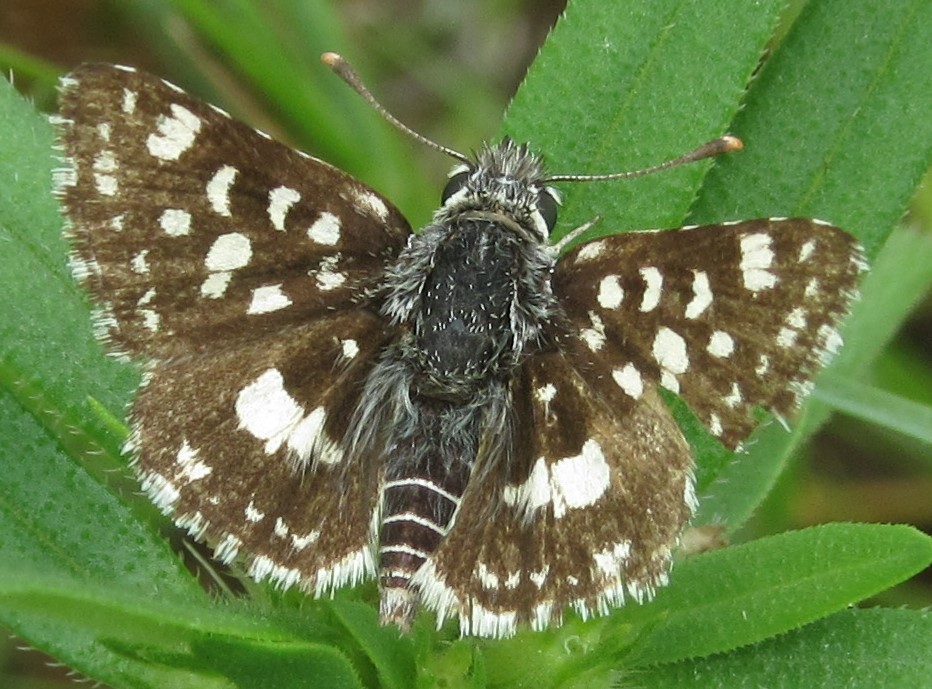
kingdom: Animalia
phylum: Arthropoda
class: Insecta
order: Lepidoptera
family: Hesperiidae
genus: Spialia
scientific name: Spialia spio
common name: Mountain sandman
